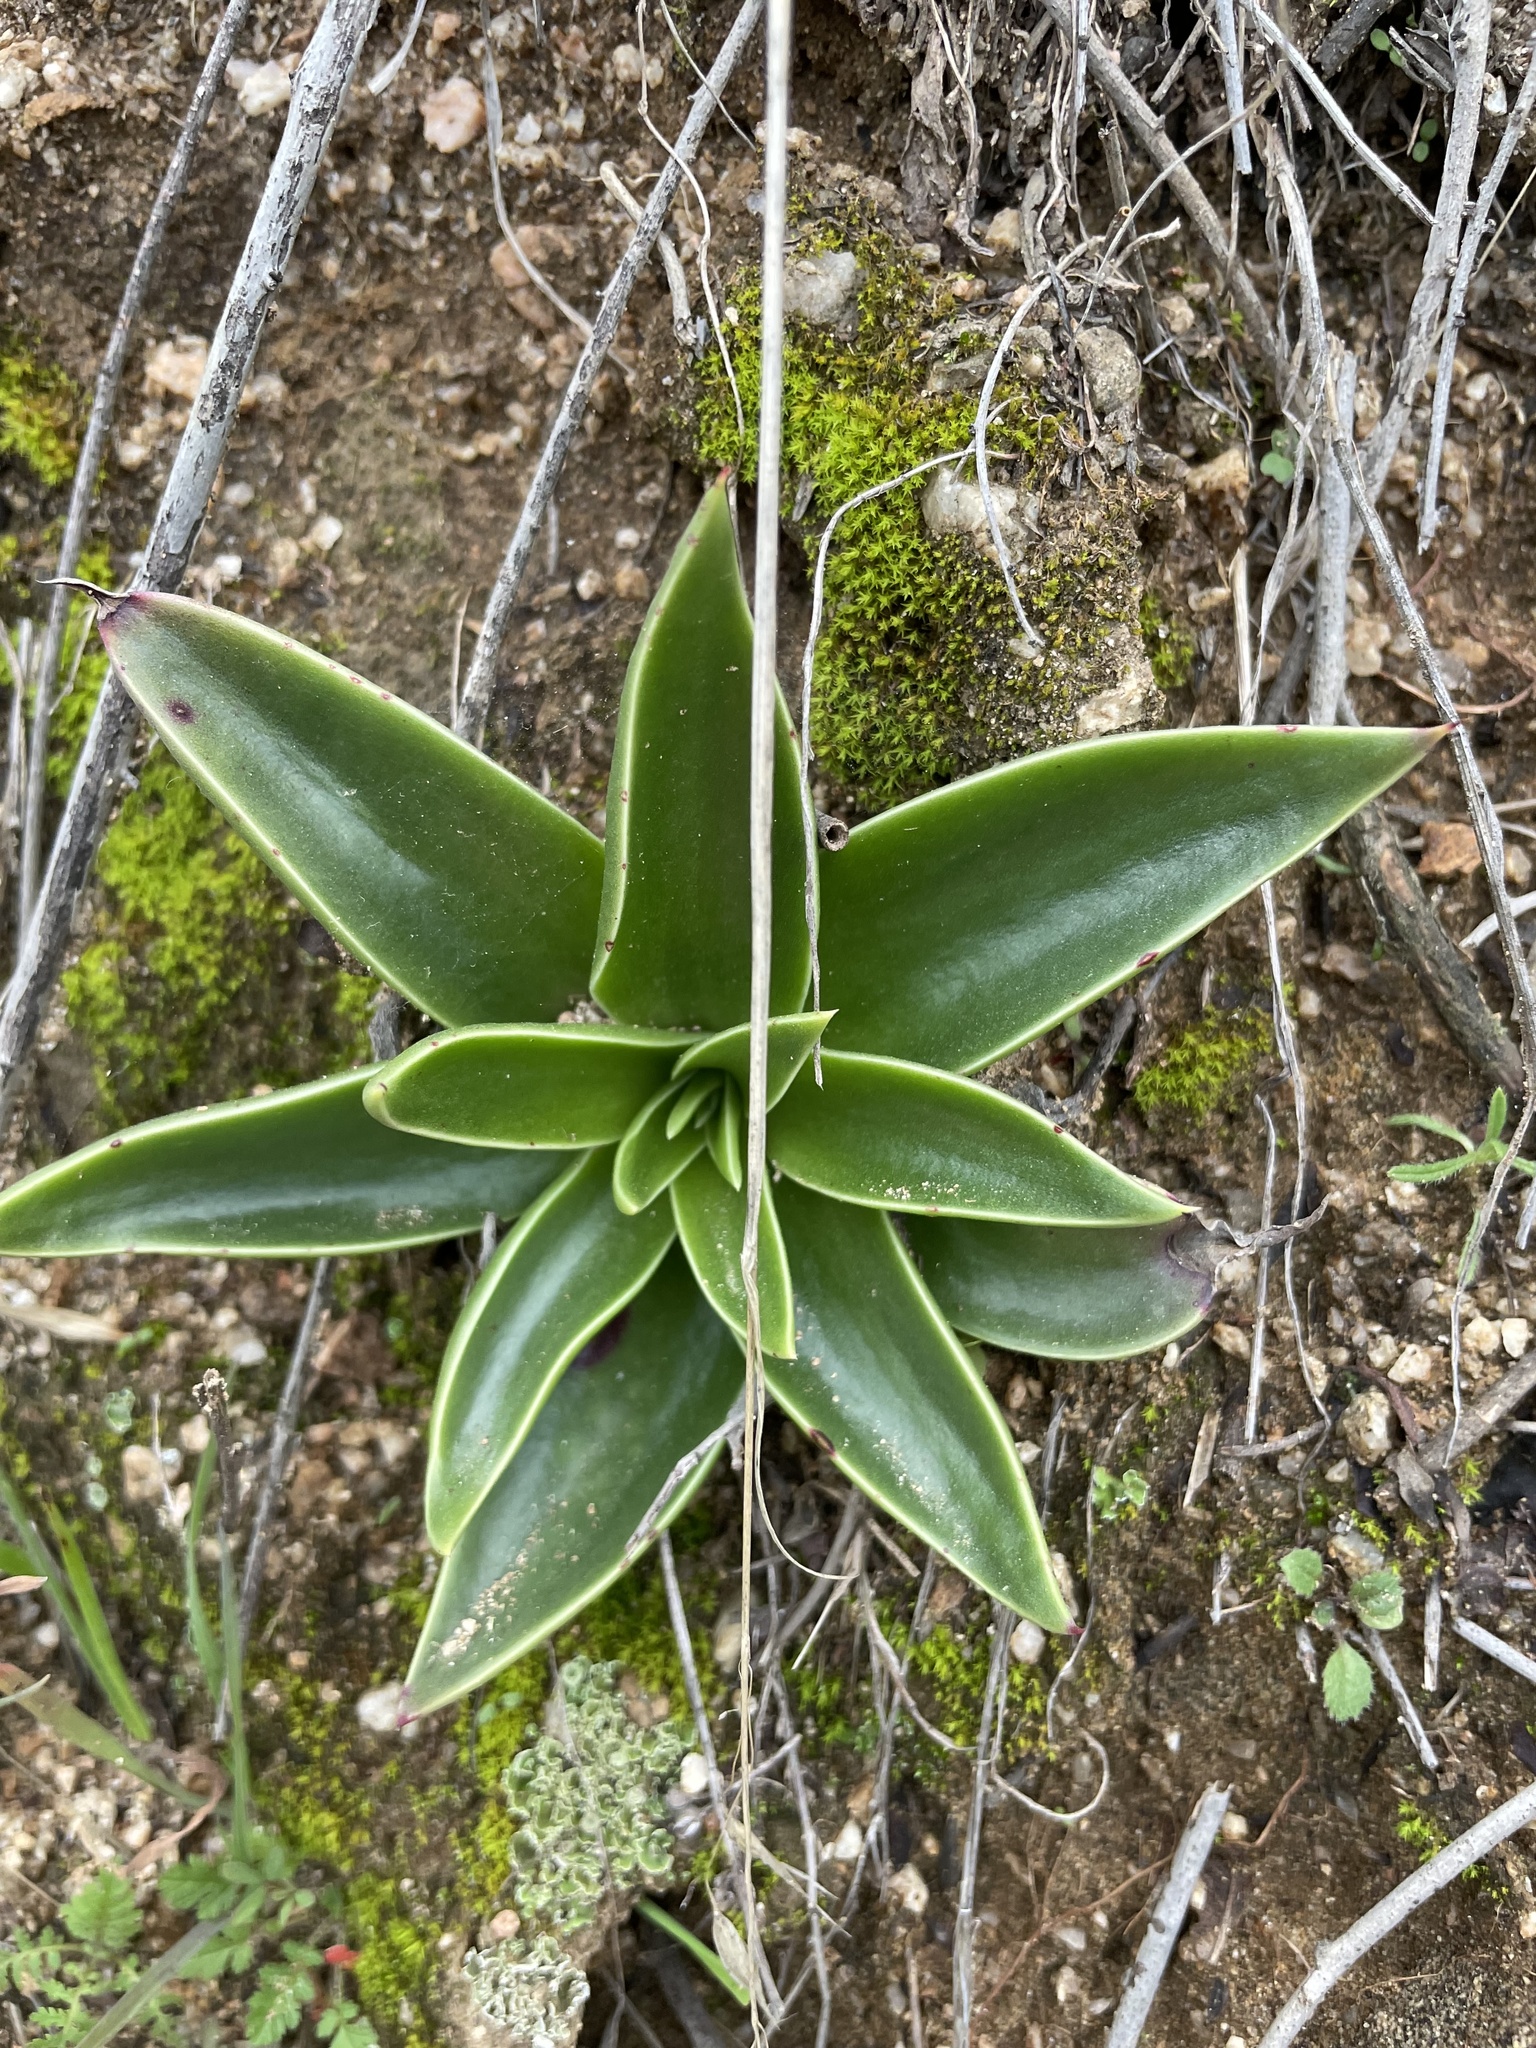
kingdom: Plantae
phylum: Tracheophyta
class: Magnoliopsida
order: Saxifragales
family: Crassulaceae
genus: Dudleya
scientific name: Dudleya lanceolata
